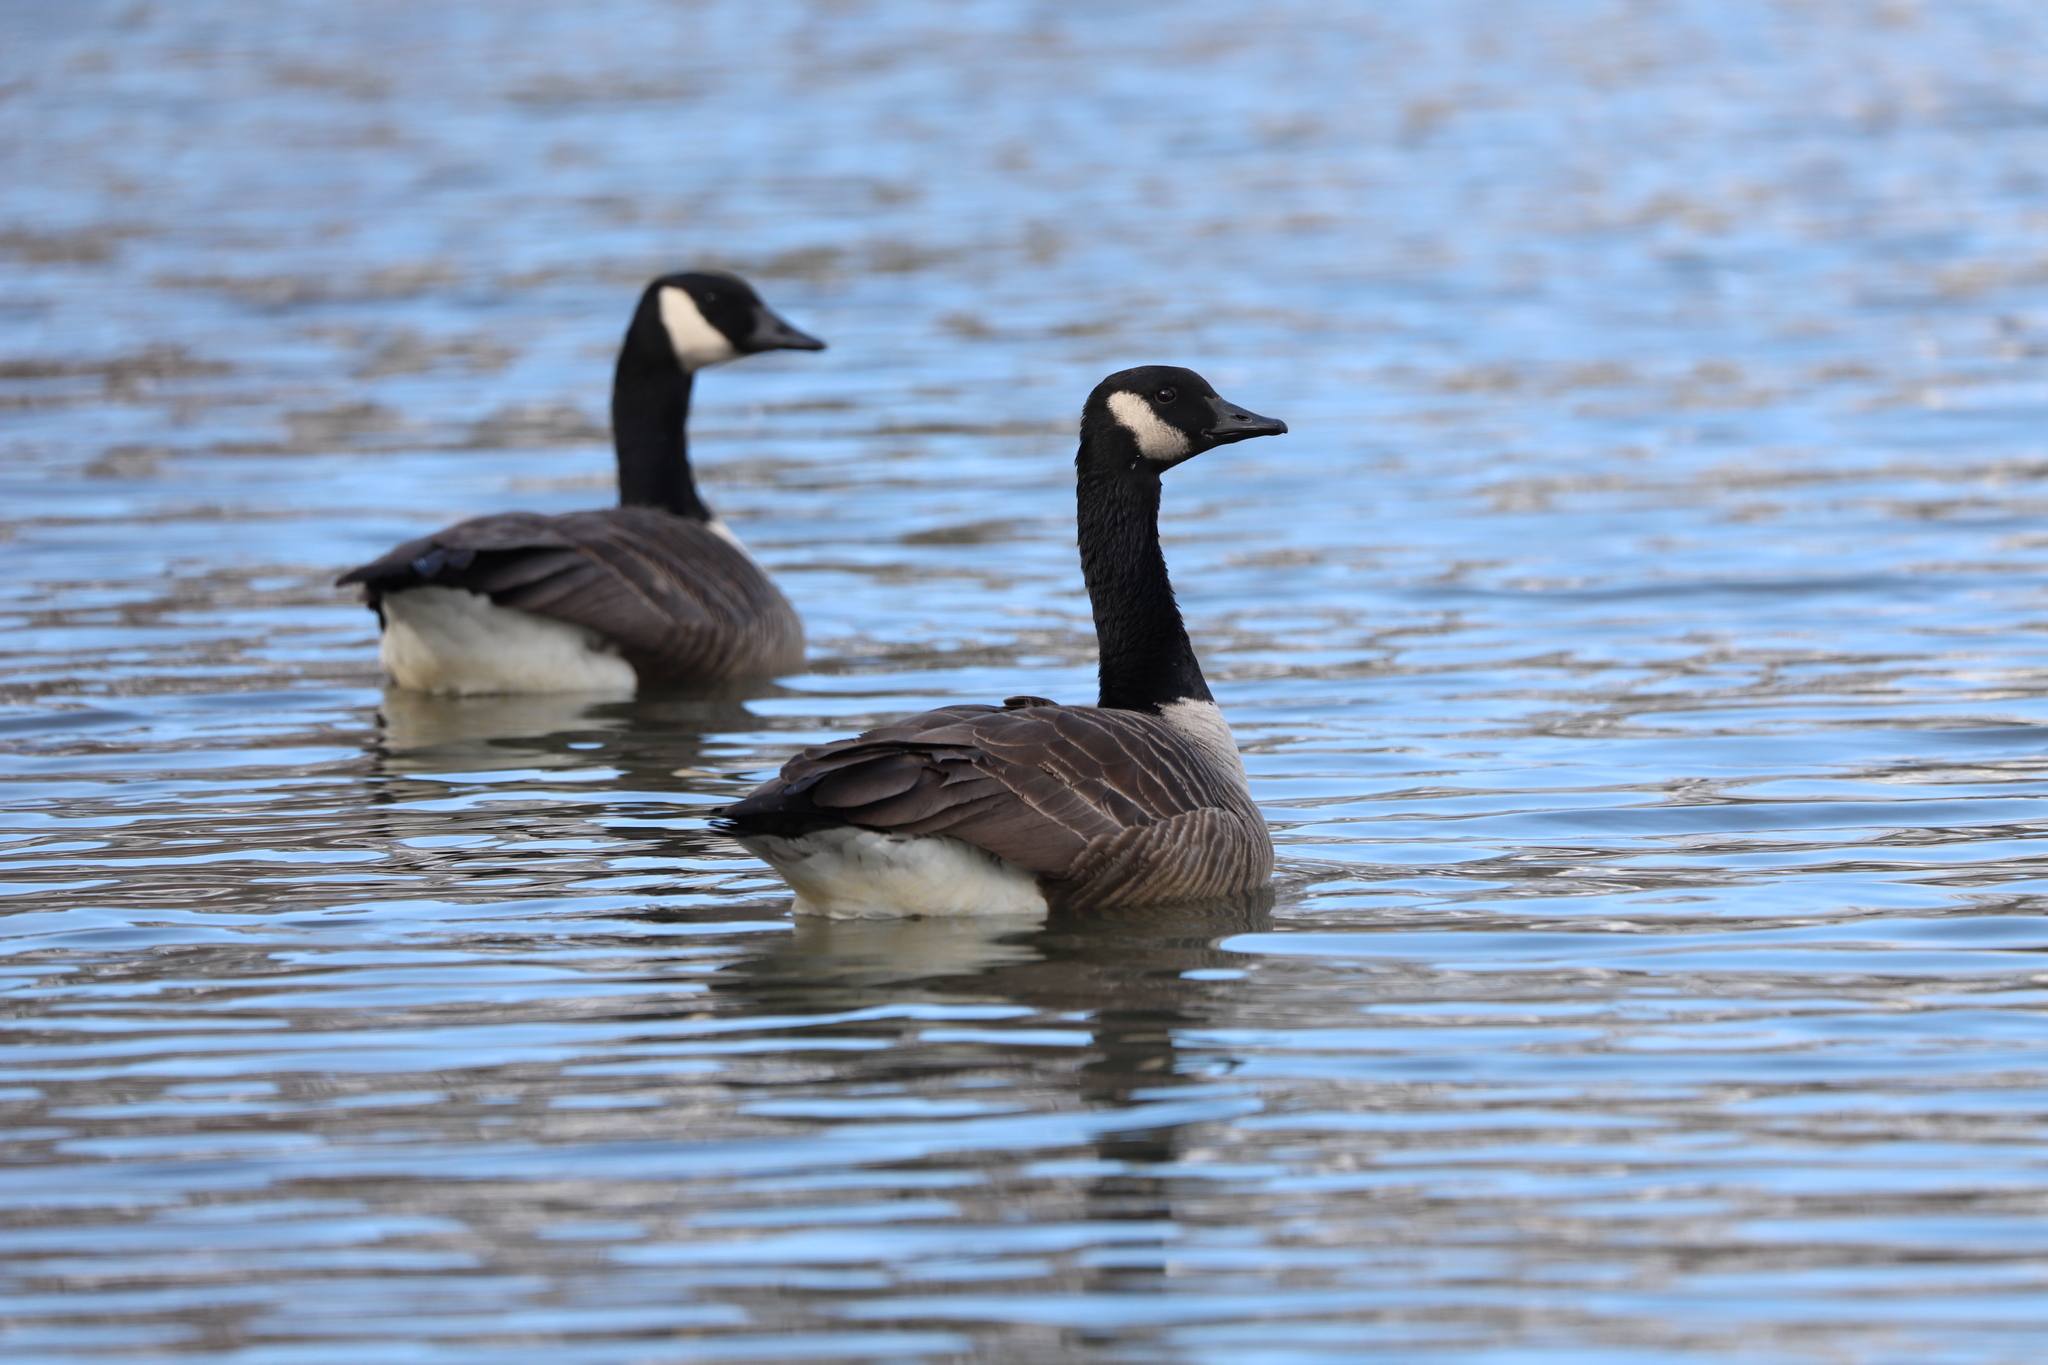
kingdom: Animalia
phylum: Chordata
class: Aves
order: Anseriformes
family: Anatidae
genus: Branta
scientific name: Branta canadensis
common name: Canada goose
